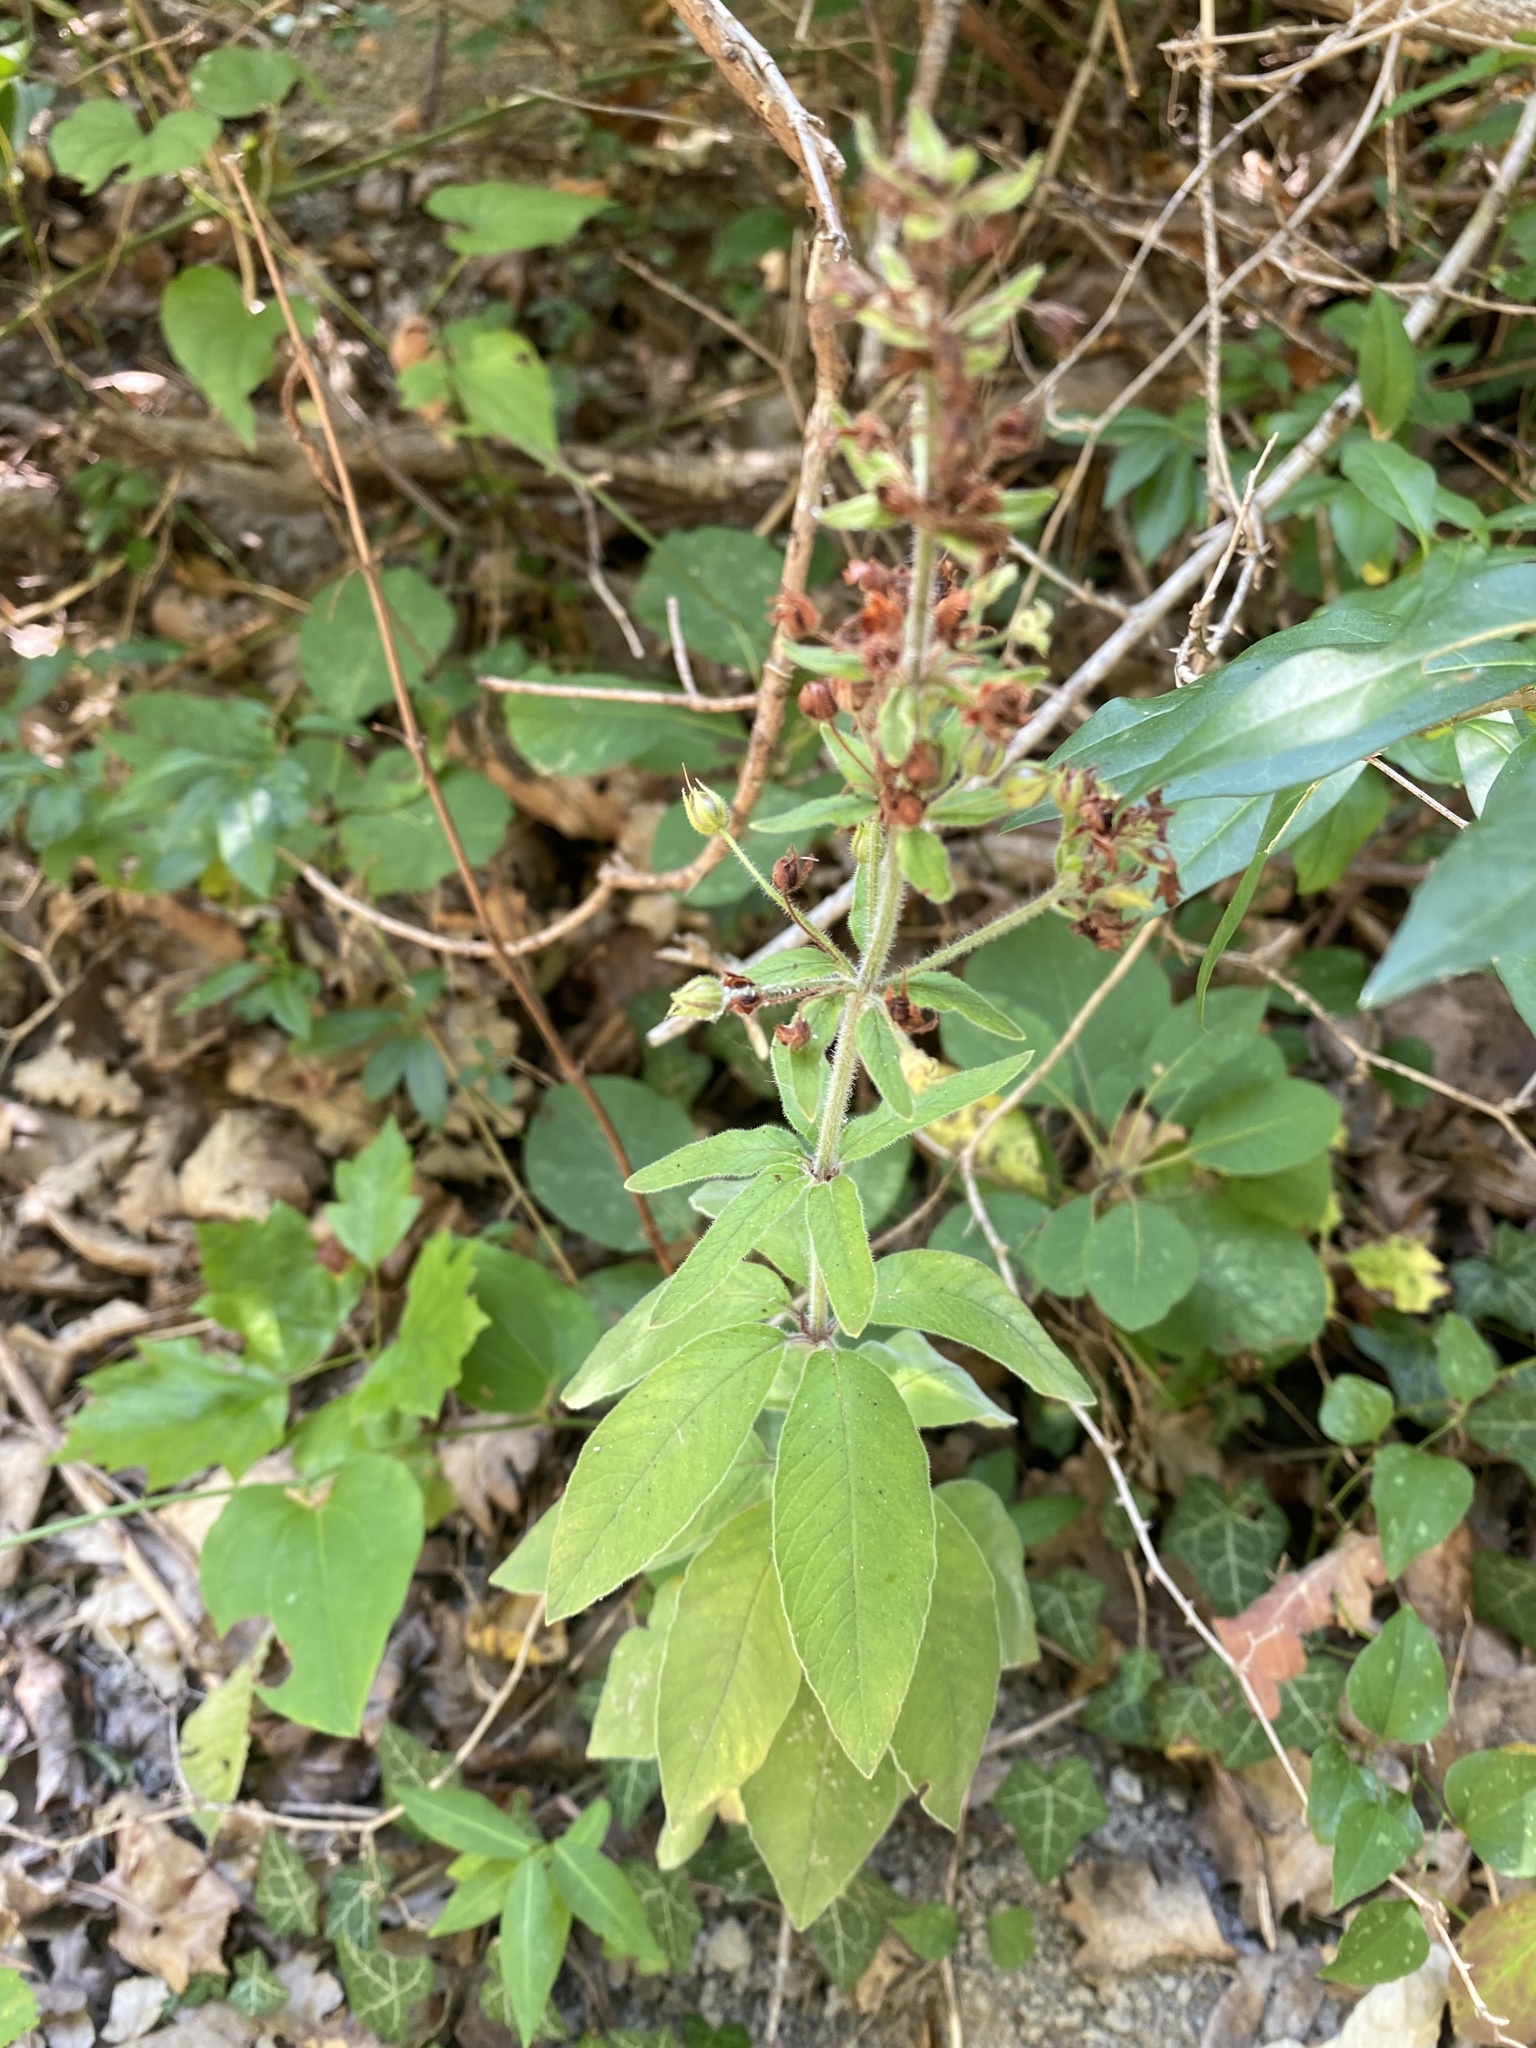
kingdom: Plantae
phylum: Tracheophyta
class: Magnoliopsida
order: Ericales
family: Primulaceae
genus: Lysimachia
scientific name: Lysimachia verticillaris
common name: Yellow loosestrife
